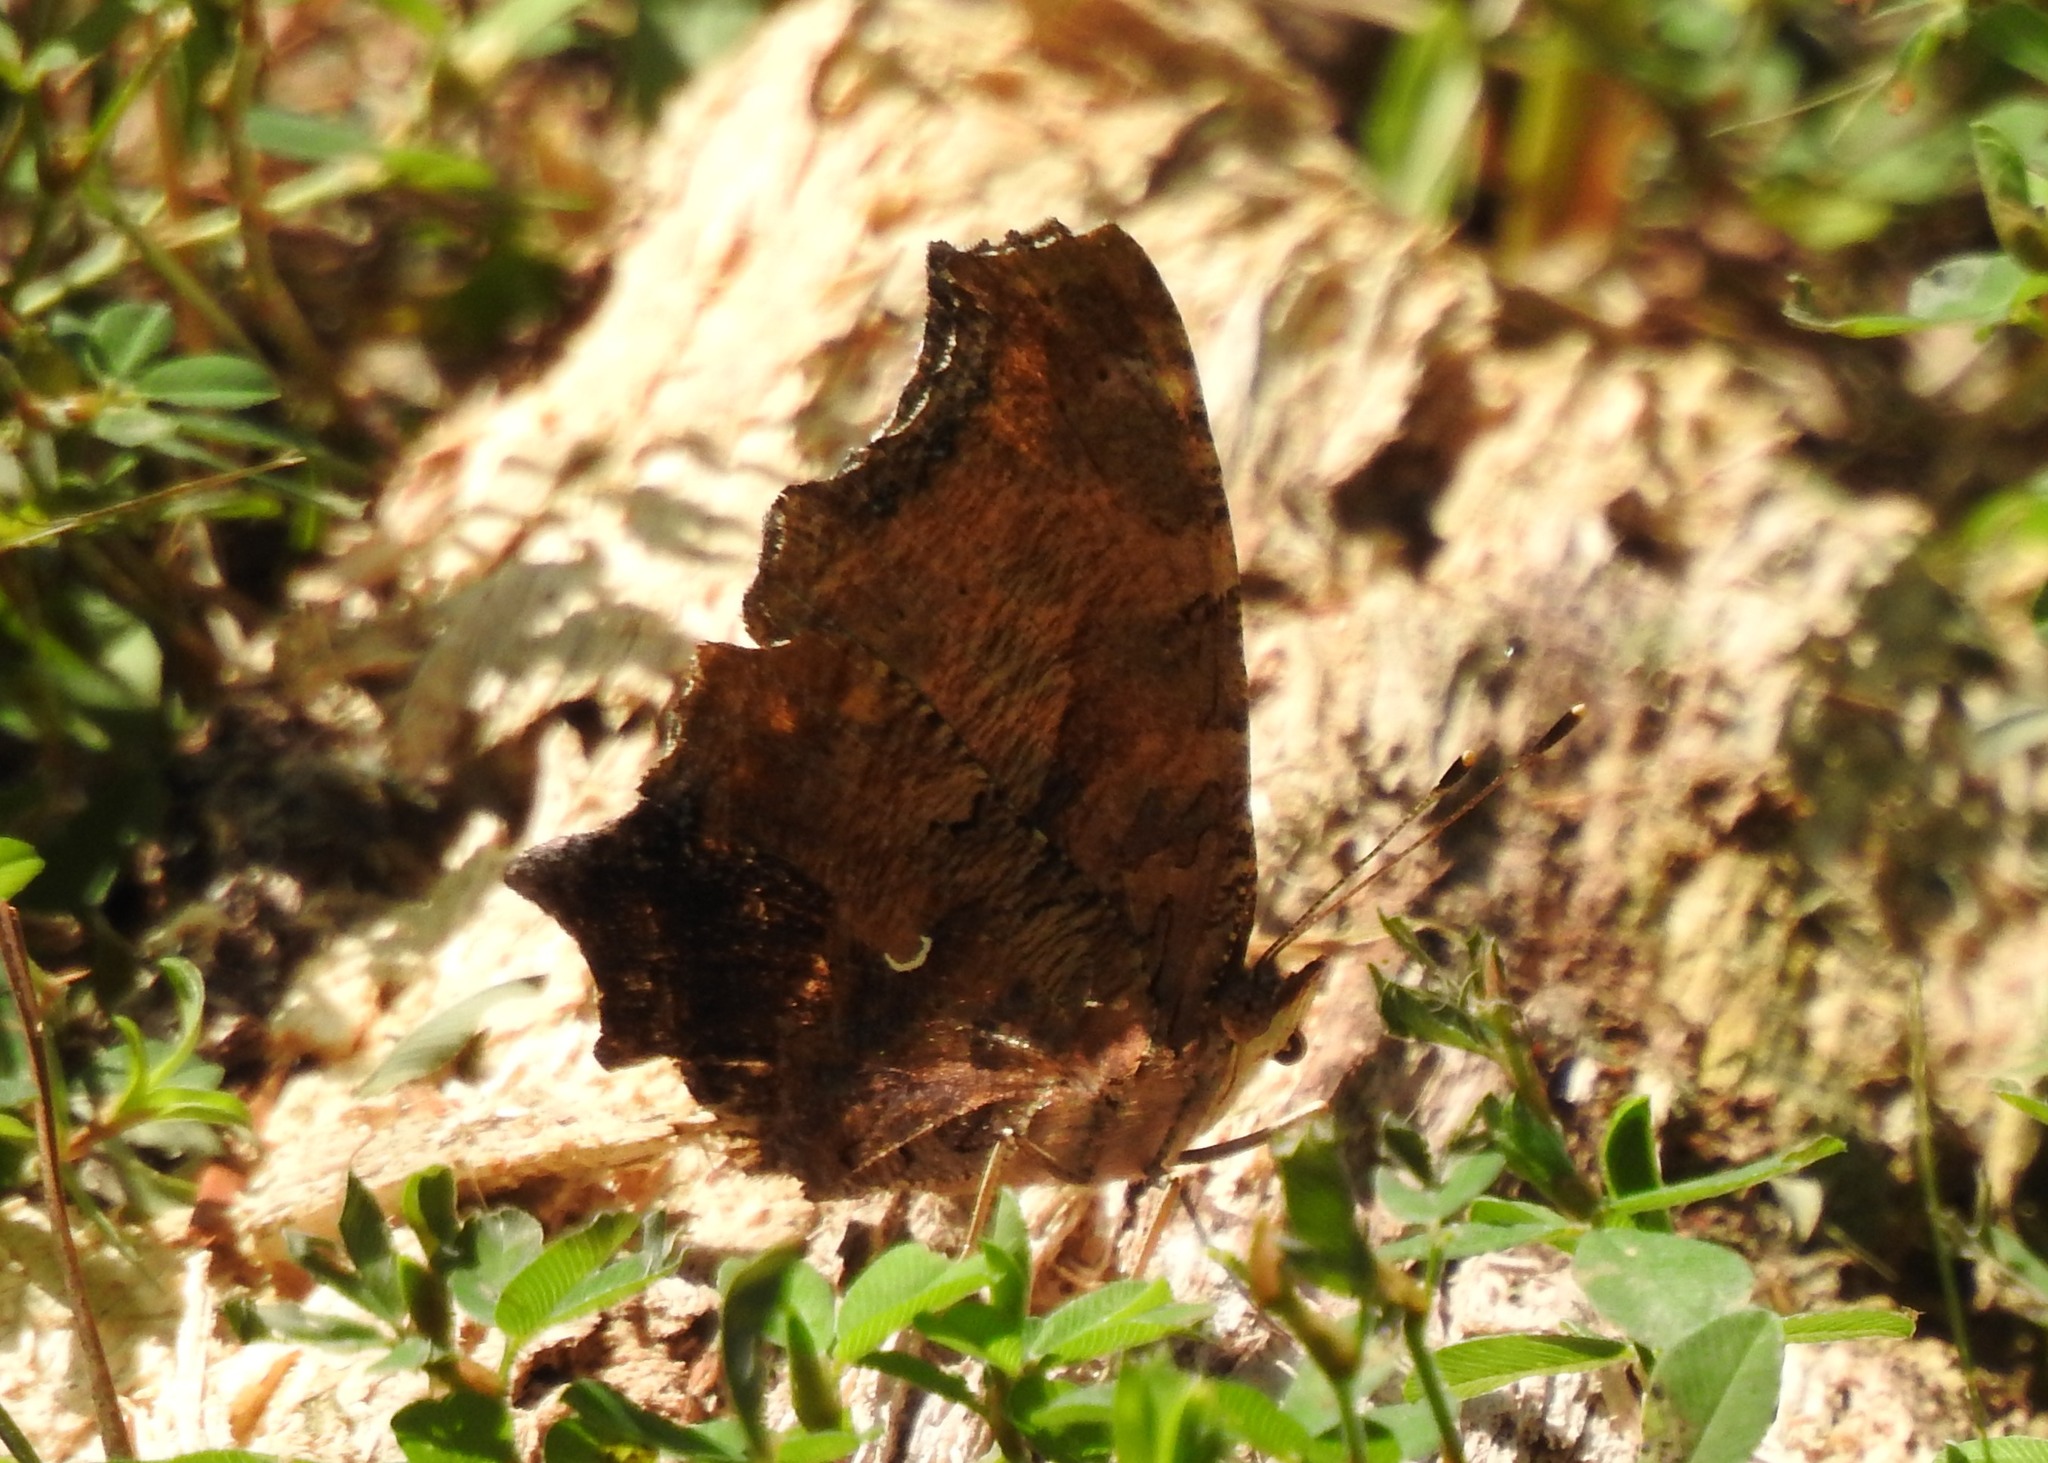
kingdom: Animalia
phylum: Arthropoda
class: Insecta
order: Lepidoptera
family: Nymphalidae
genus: Polygonia
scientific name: Polygonia comma
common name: Eastern comma
